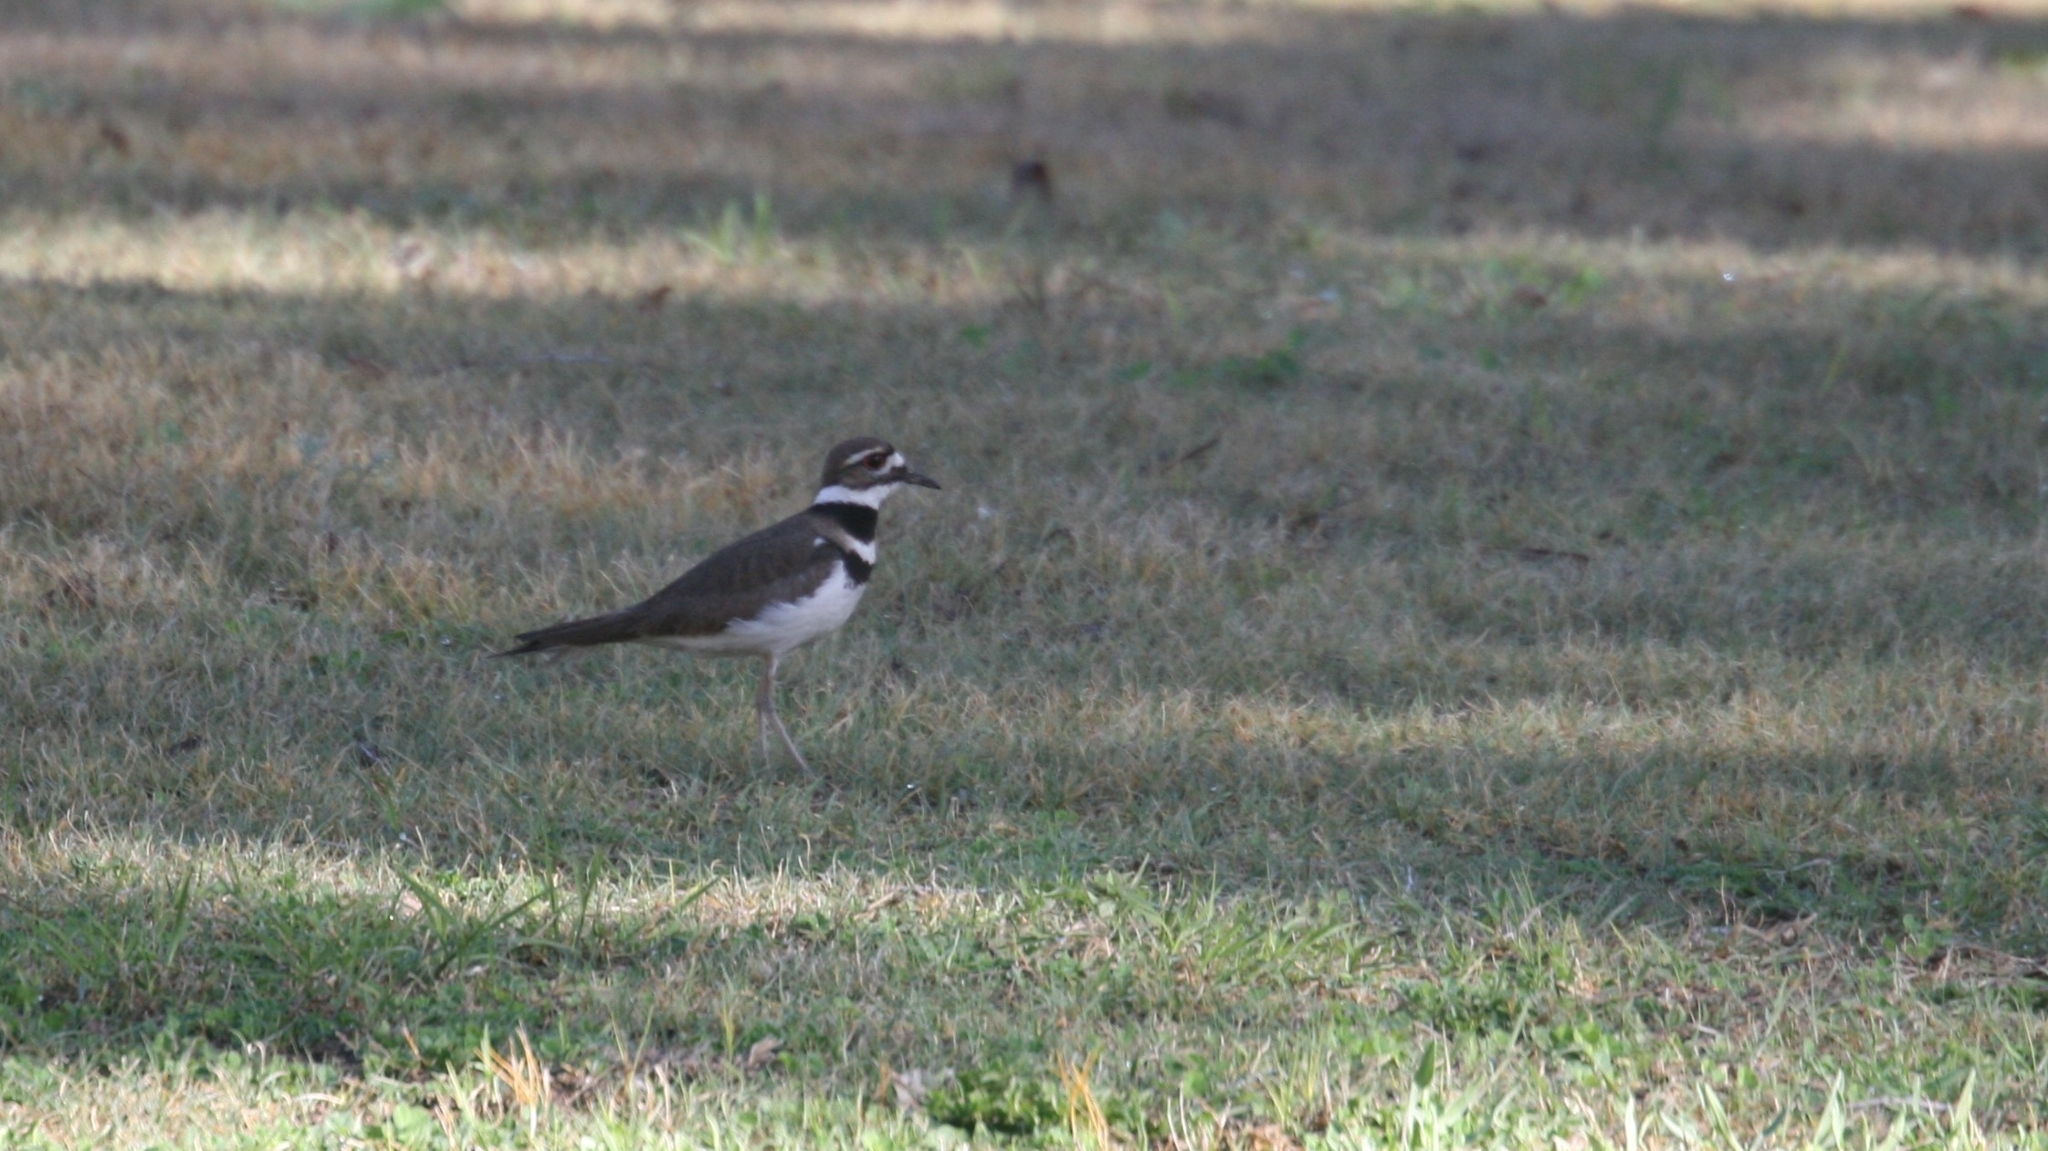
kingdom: Animalia
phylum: Chordata
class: Aves
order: Charadriiformes
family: Charadriidae
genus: Charadrius
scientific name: Charadrius vociferus
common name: Killdeer
